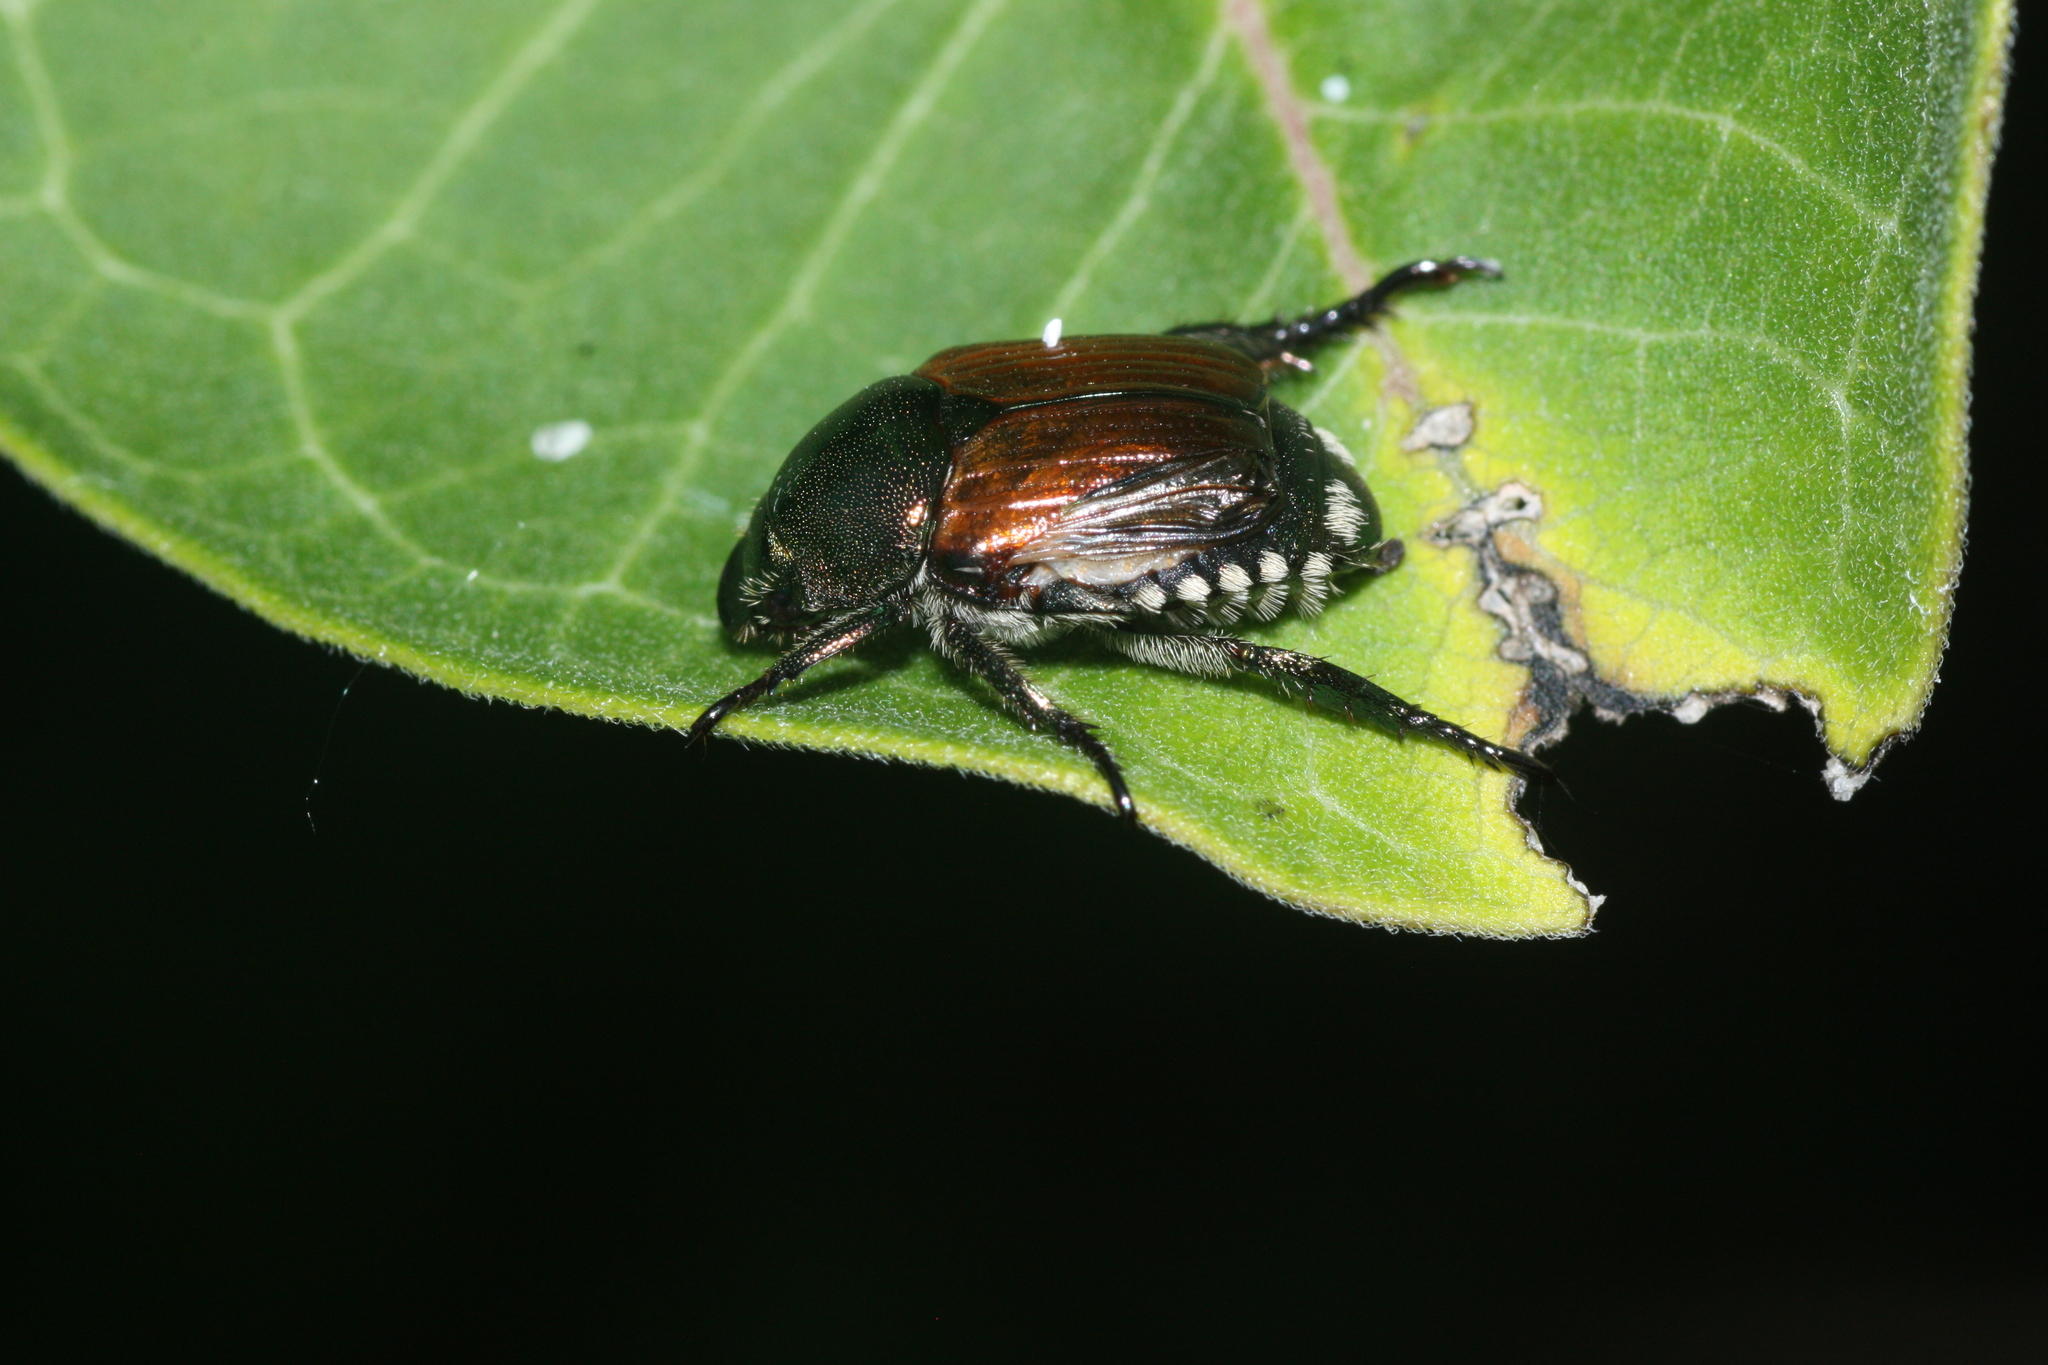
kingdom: Animalia
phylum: Arthropoda
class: Insecta
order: Coleoptera
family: Scarabaeidae
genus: Popillia
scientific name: Popillia japonica
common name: Japanese beetle
